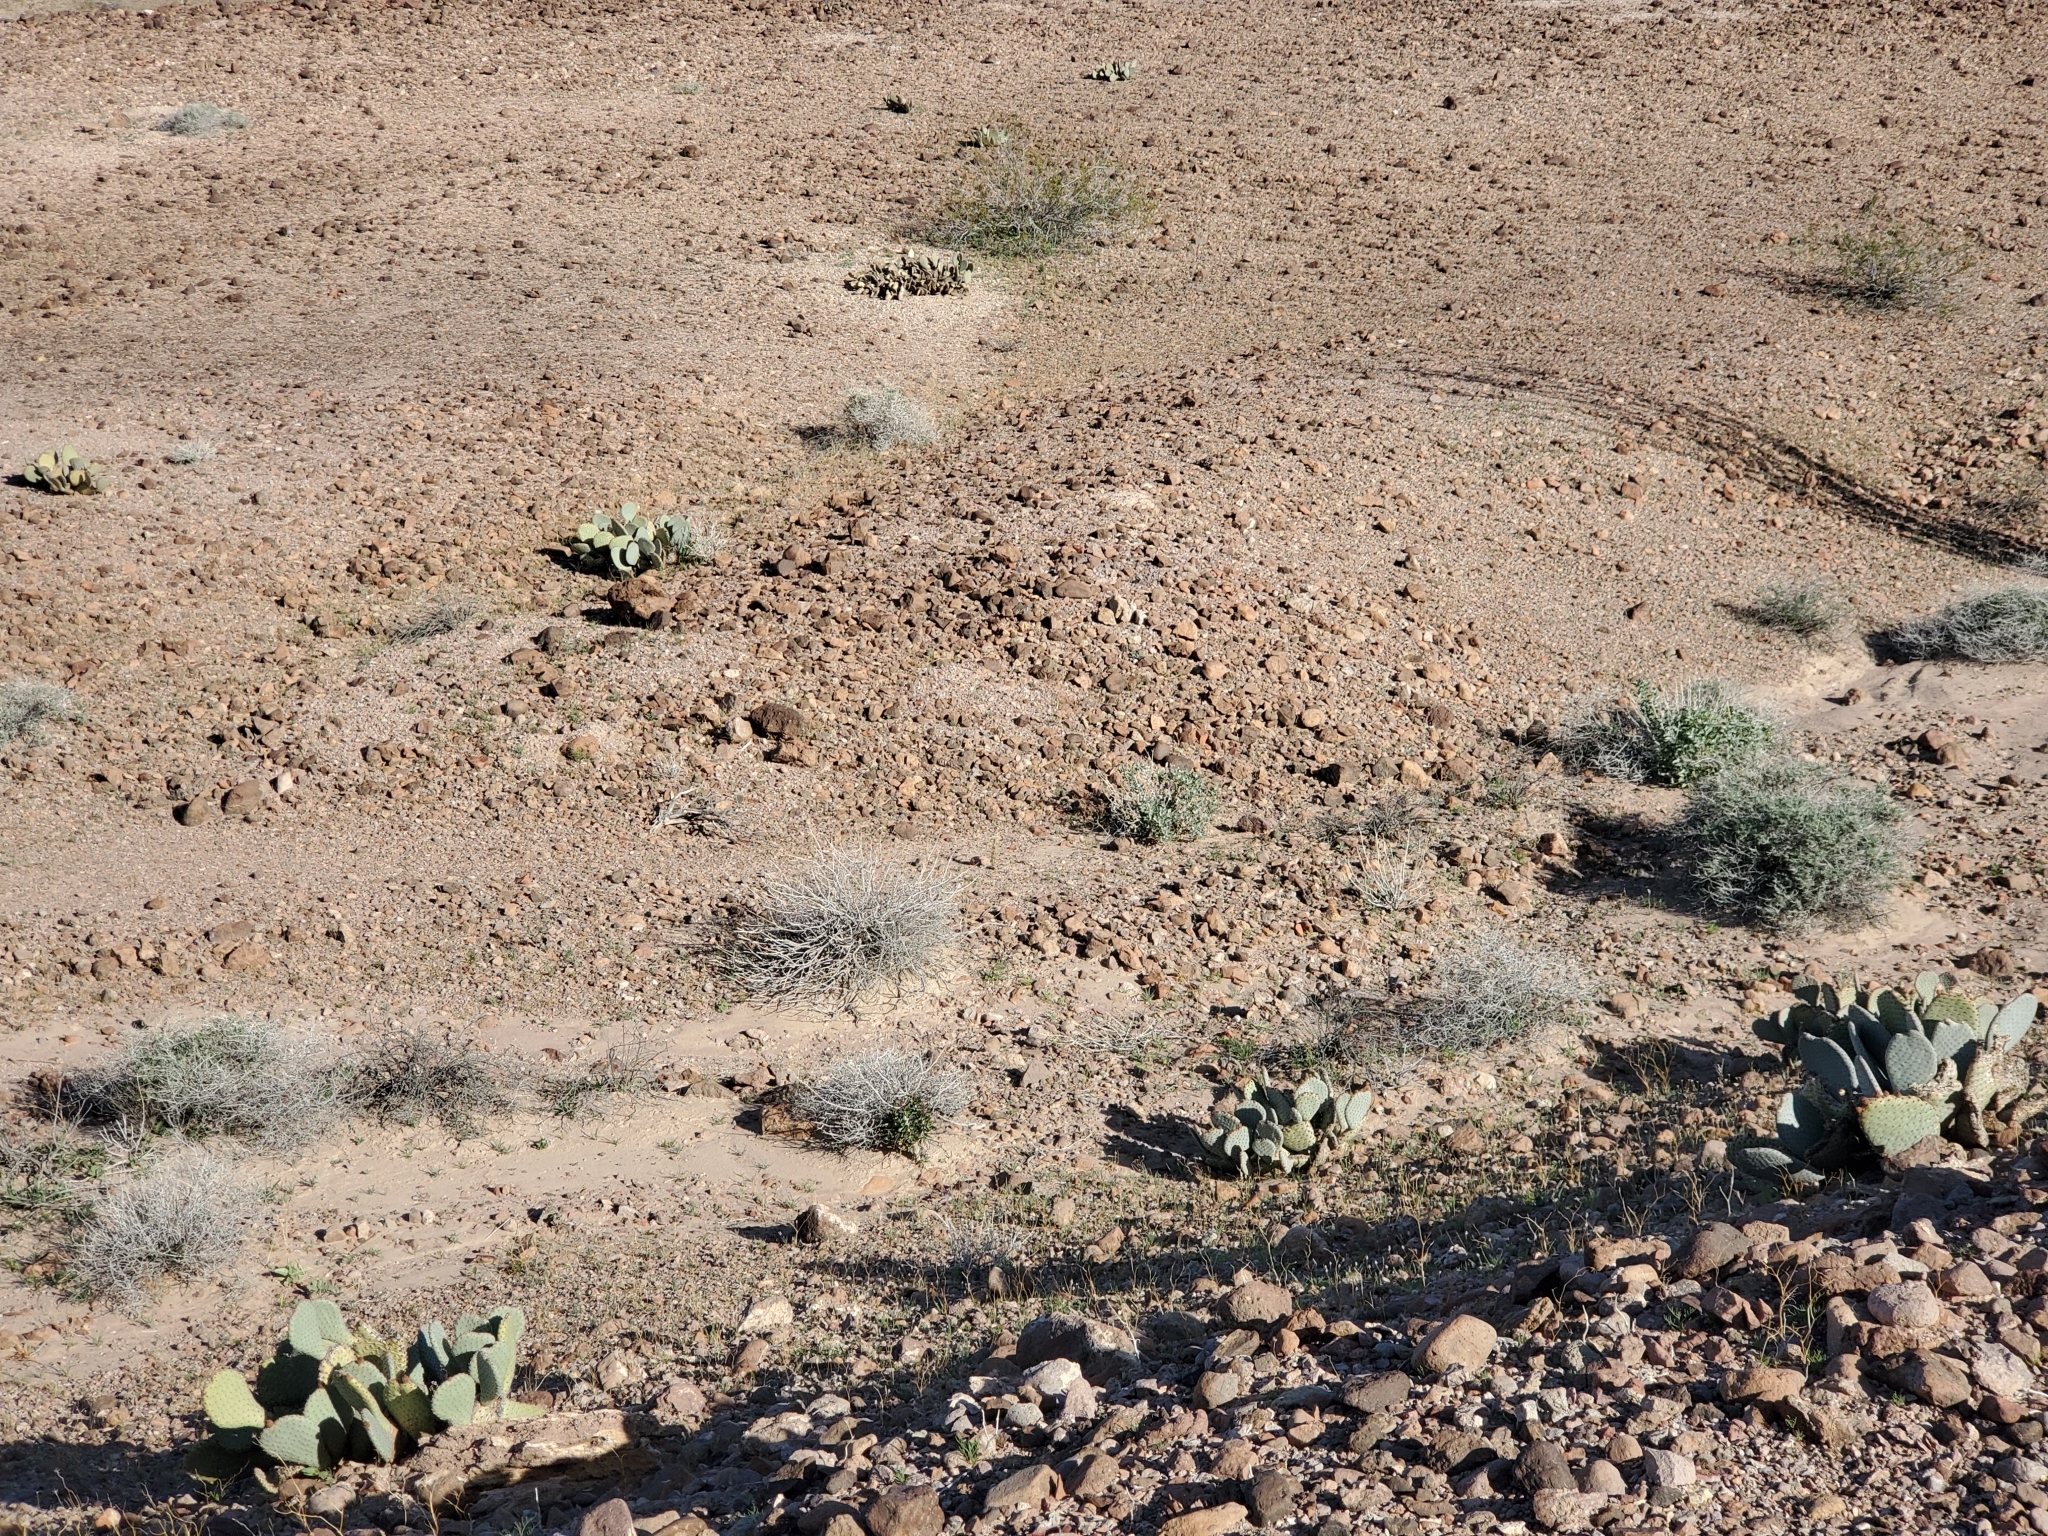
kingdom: Plantae
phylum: Tracheophyta
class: Magnoliopsida
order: Caryophyllales
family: Cactaceae
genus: Opuntia
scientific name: Opuntia basilaris
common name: Beavertail prickly-pear
